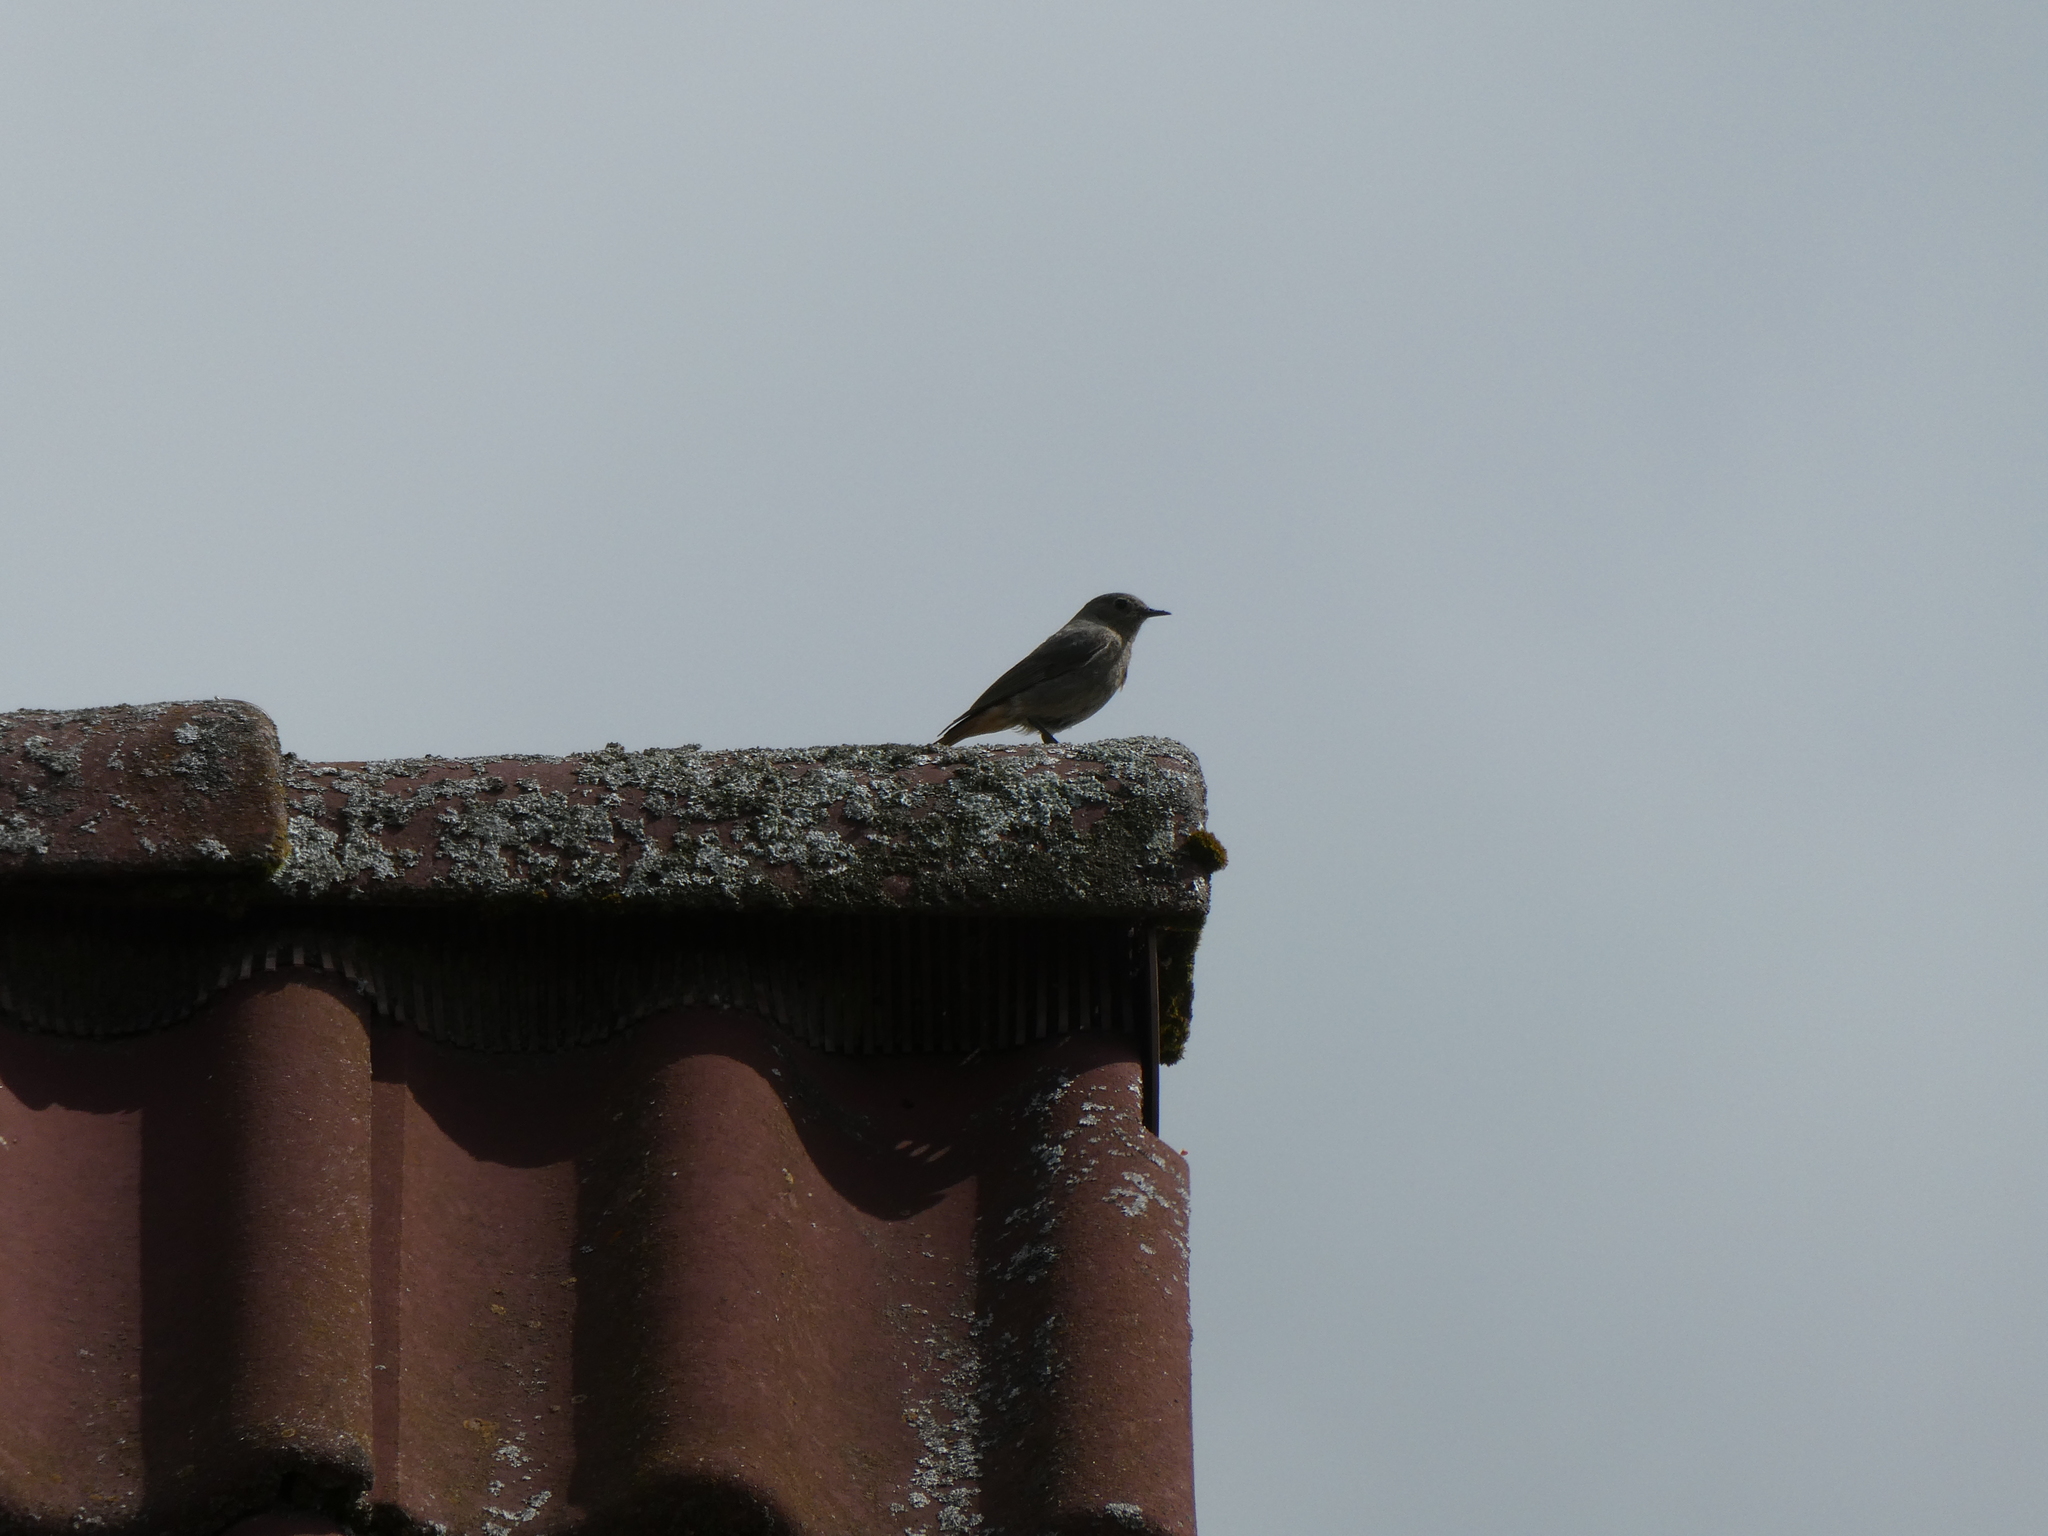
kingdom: Animalia
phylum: Chordata
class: Aves
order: Passeriformes
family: Muscicapidae
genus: Phoenicurus
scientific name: Phoenicurus ochruros
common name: Black redstart
